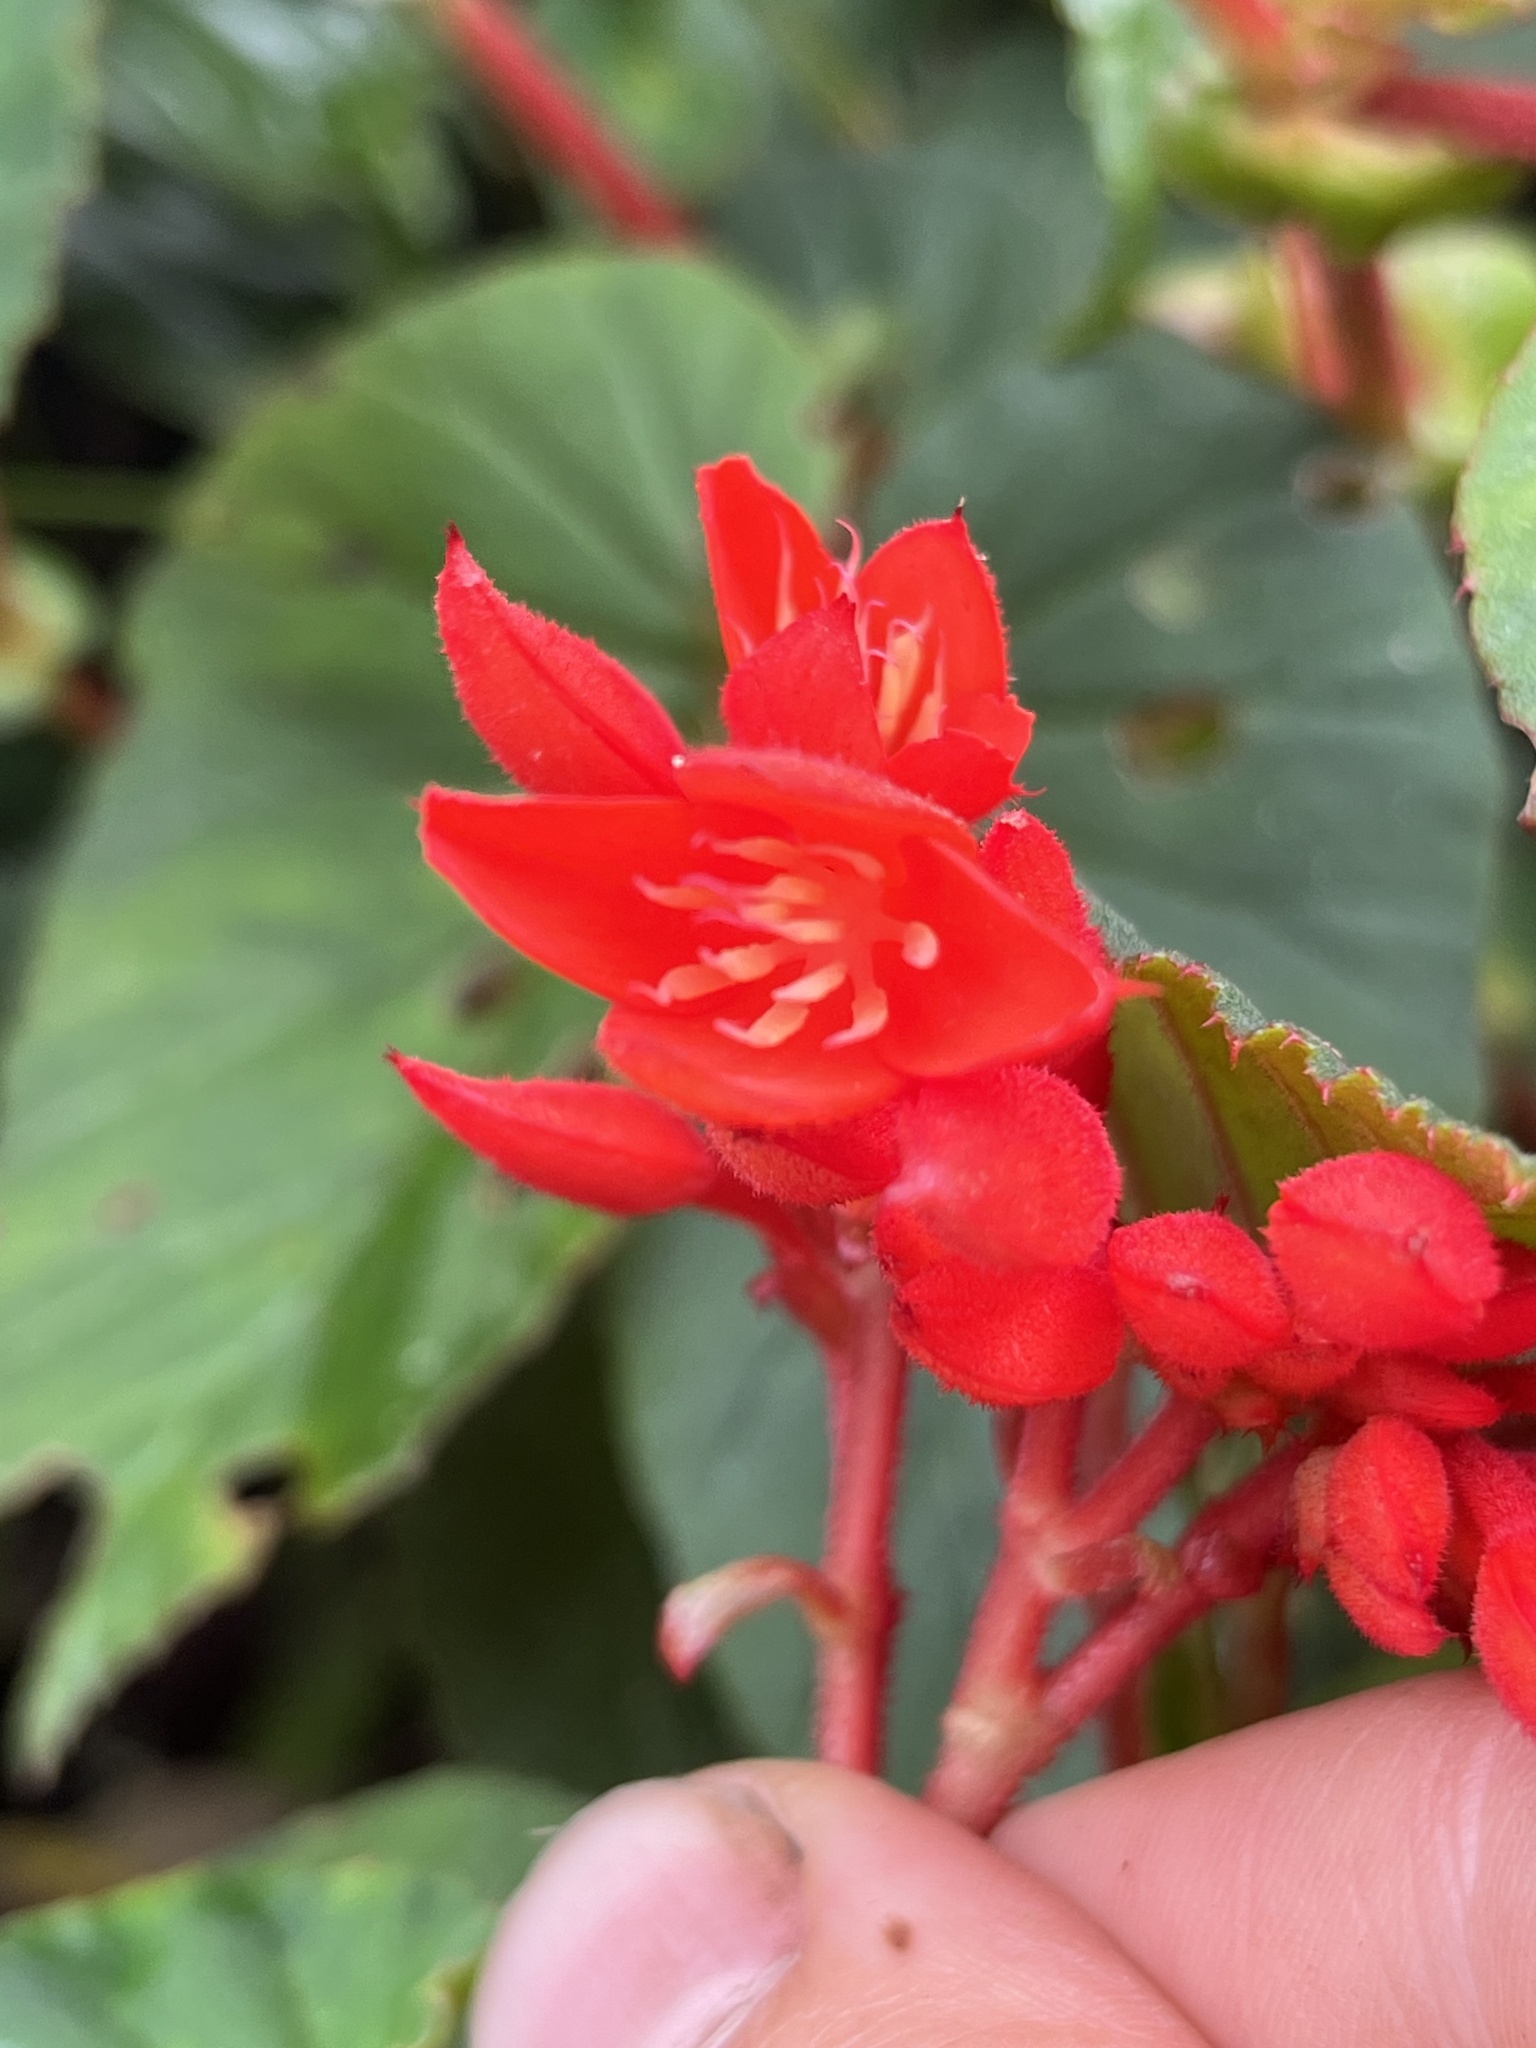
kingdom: Plantae
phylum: Tracheophyta
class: Magnoliopsida
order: Cucurbitales
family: Begoniaceae
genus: Begonia
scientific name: Begonia ferruginea
